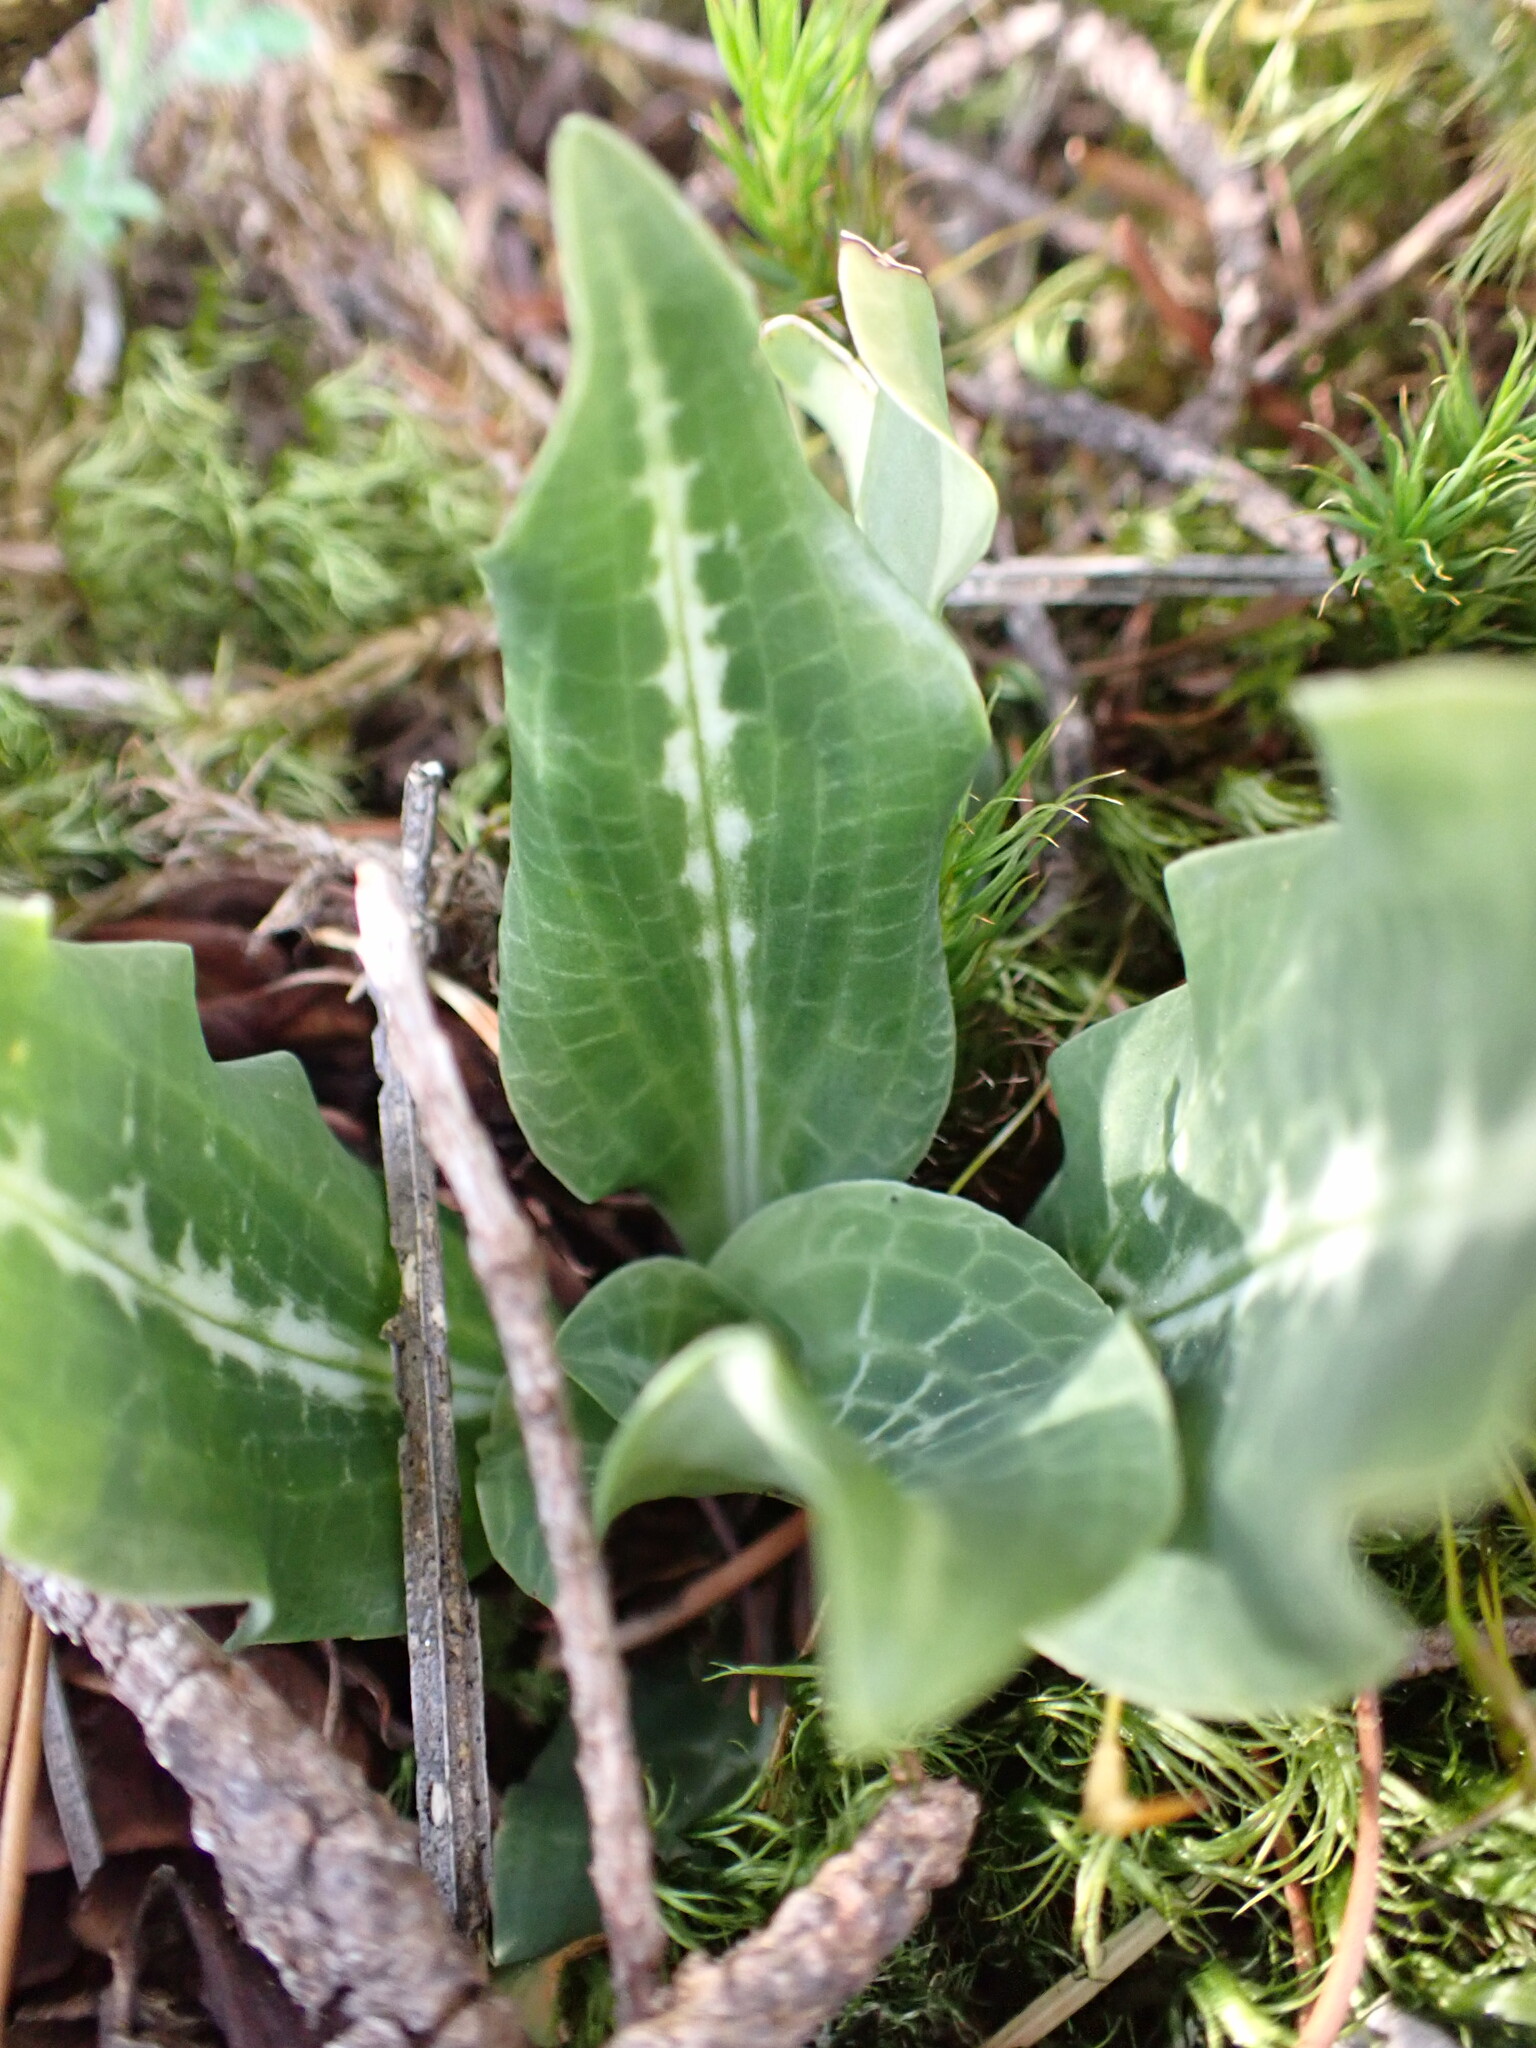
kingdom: Plantae
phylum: Tracheophyta
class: Liliopsida
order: Asparagales
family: Orchidaceae
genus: Goodyera
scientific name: Goodyera oblongifolia
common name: Giant rattlesnake-plantain
